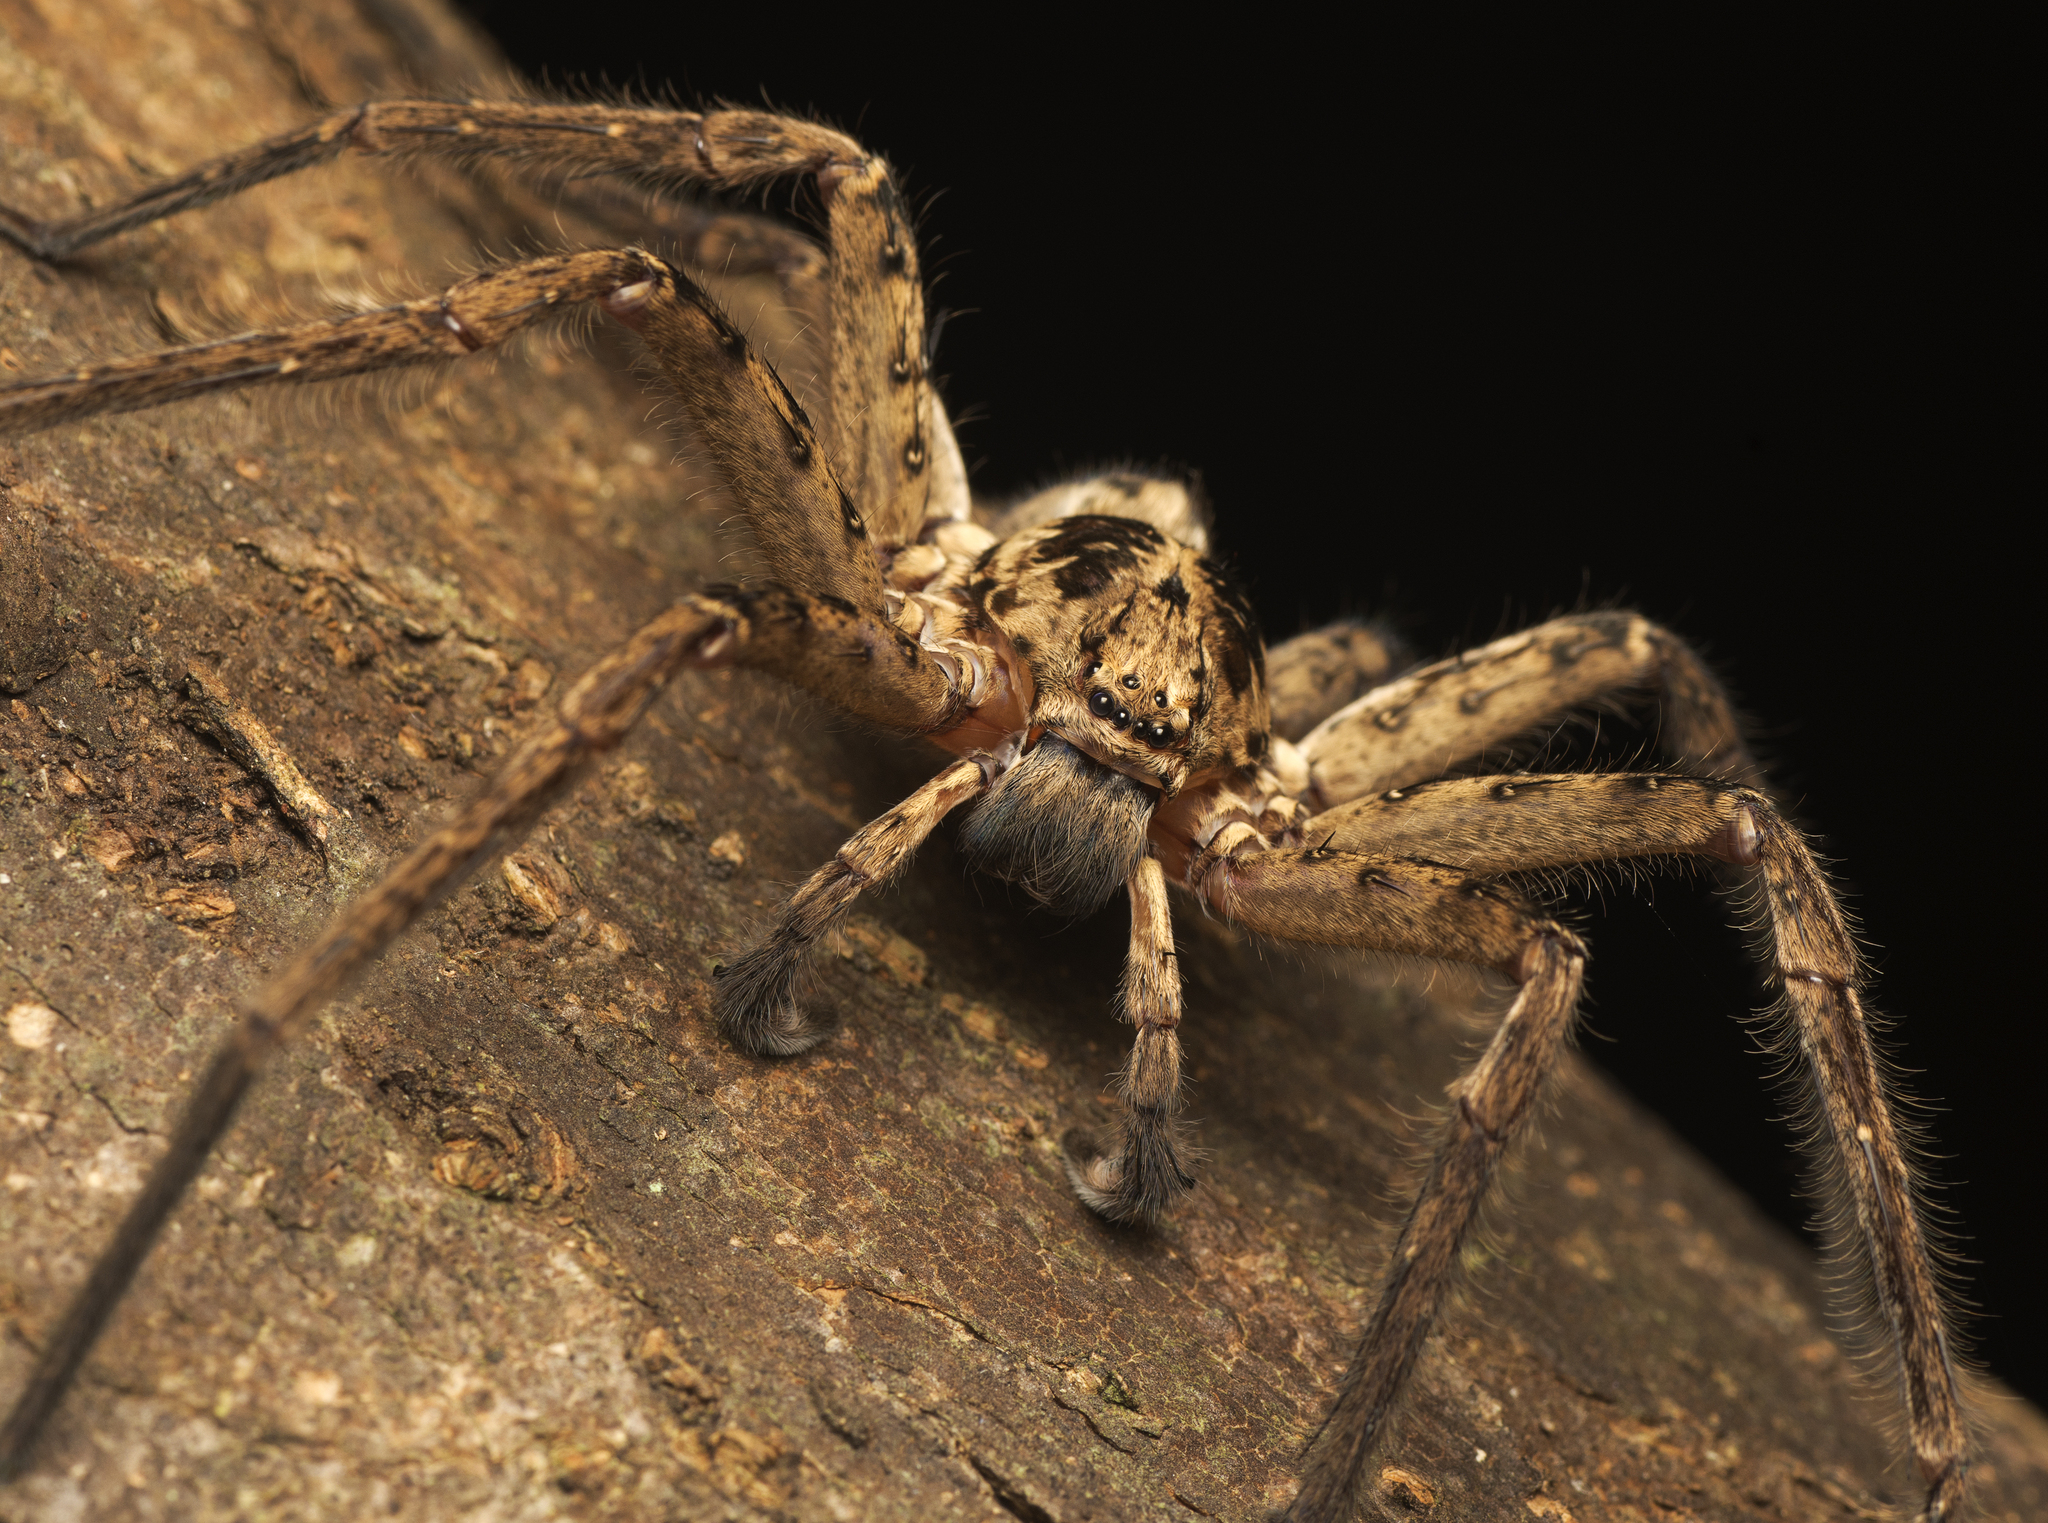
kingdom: Animalia
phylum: Arthropoda
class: Arachnida
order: Araneae
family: Sparassidae
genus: Heteropoda
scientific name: Heteropoda hillerae
